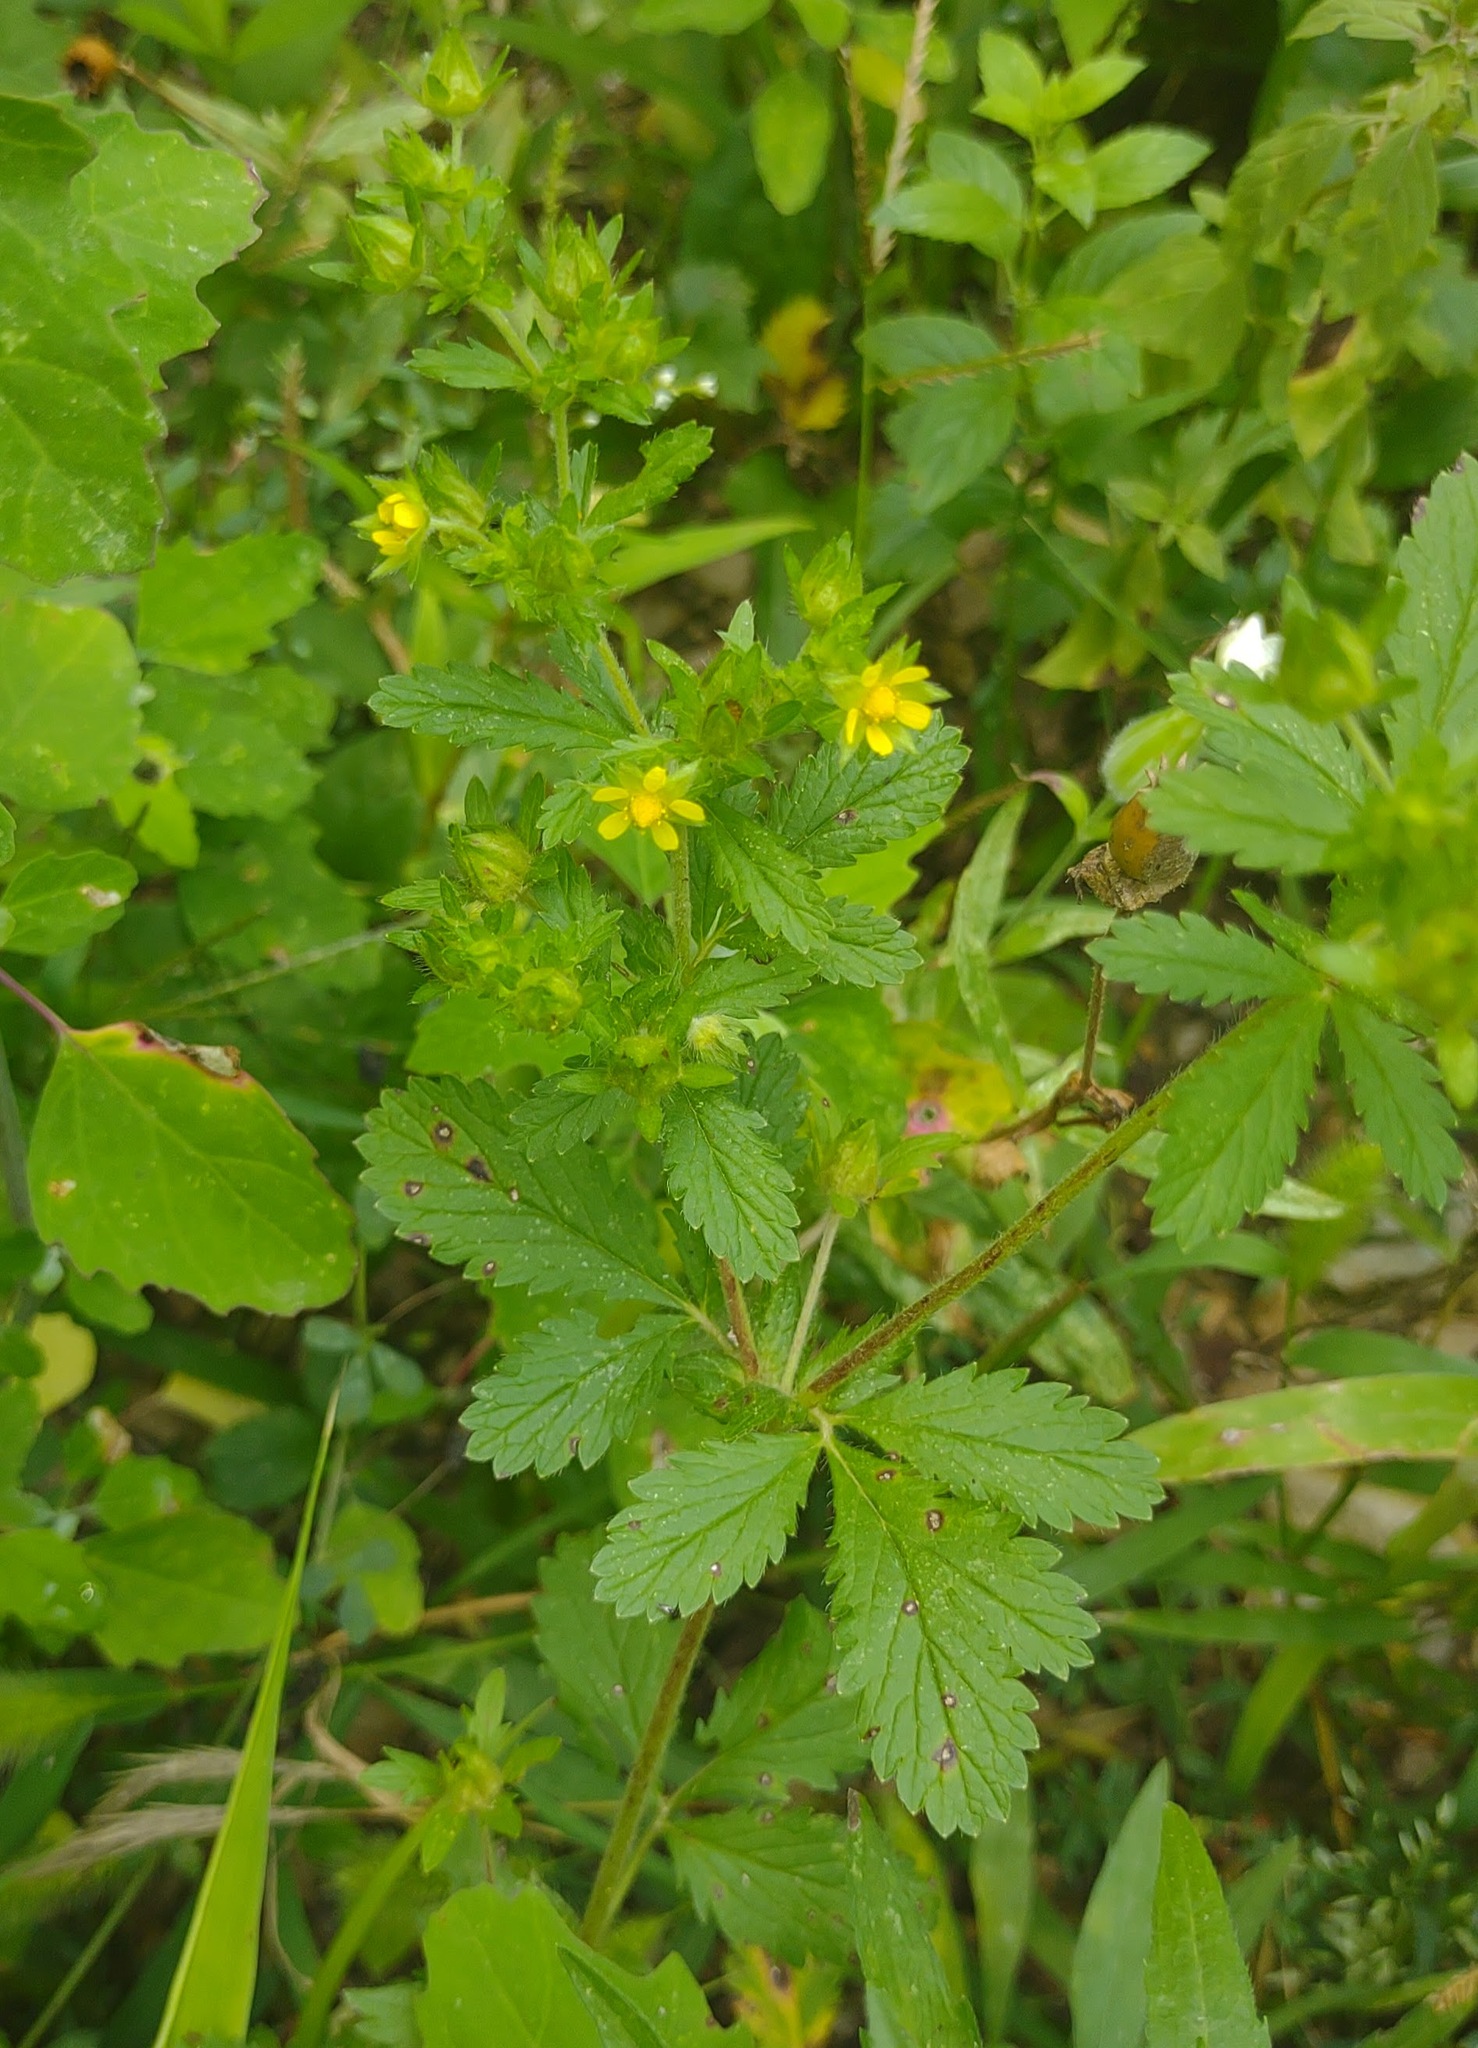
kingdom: Plantae
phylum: Tracheophyta
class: Magnoliopsida
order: Rosales
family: Rosaceae
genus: Potentilla
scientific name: Potentilla norvegica
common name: Ternate-leaved cinquefoil
